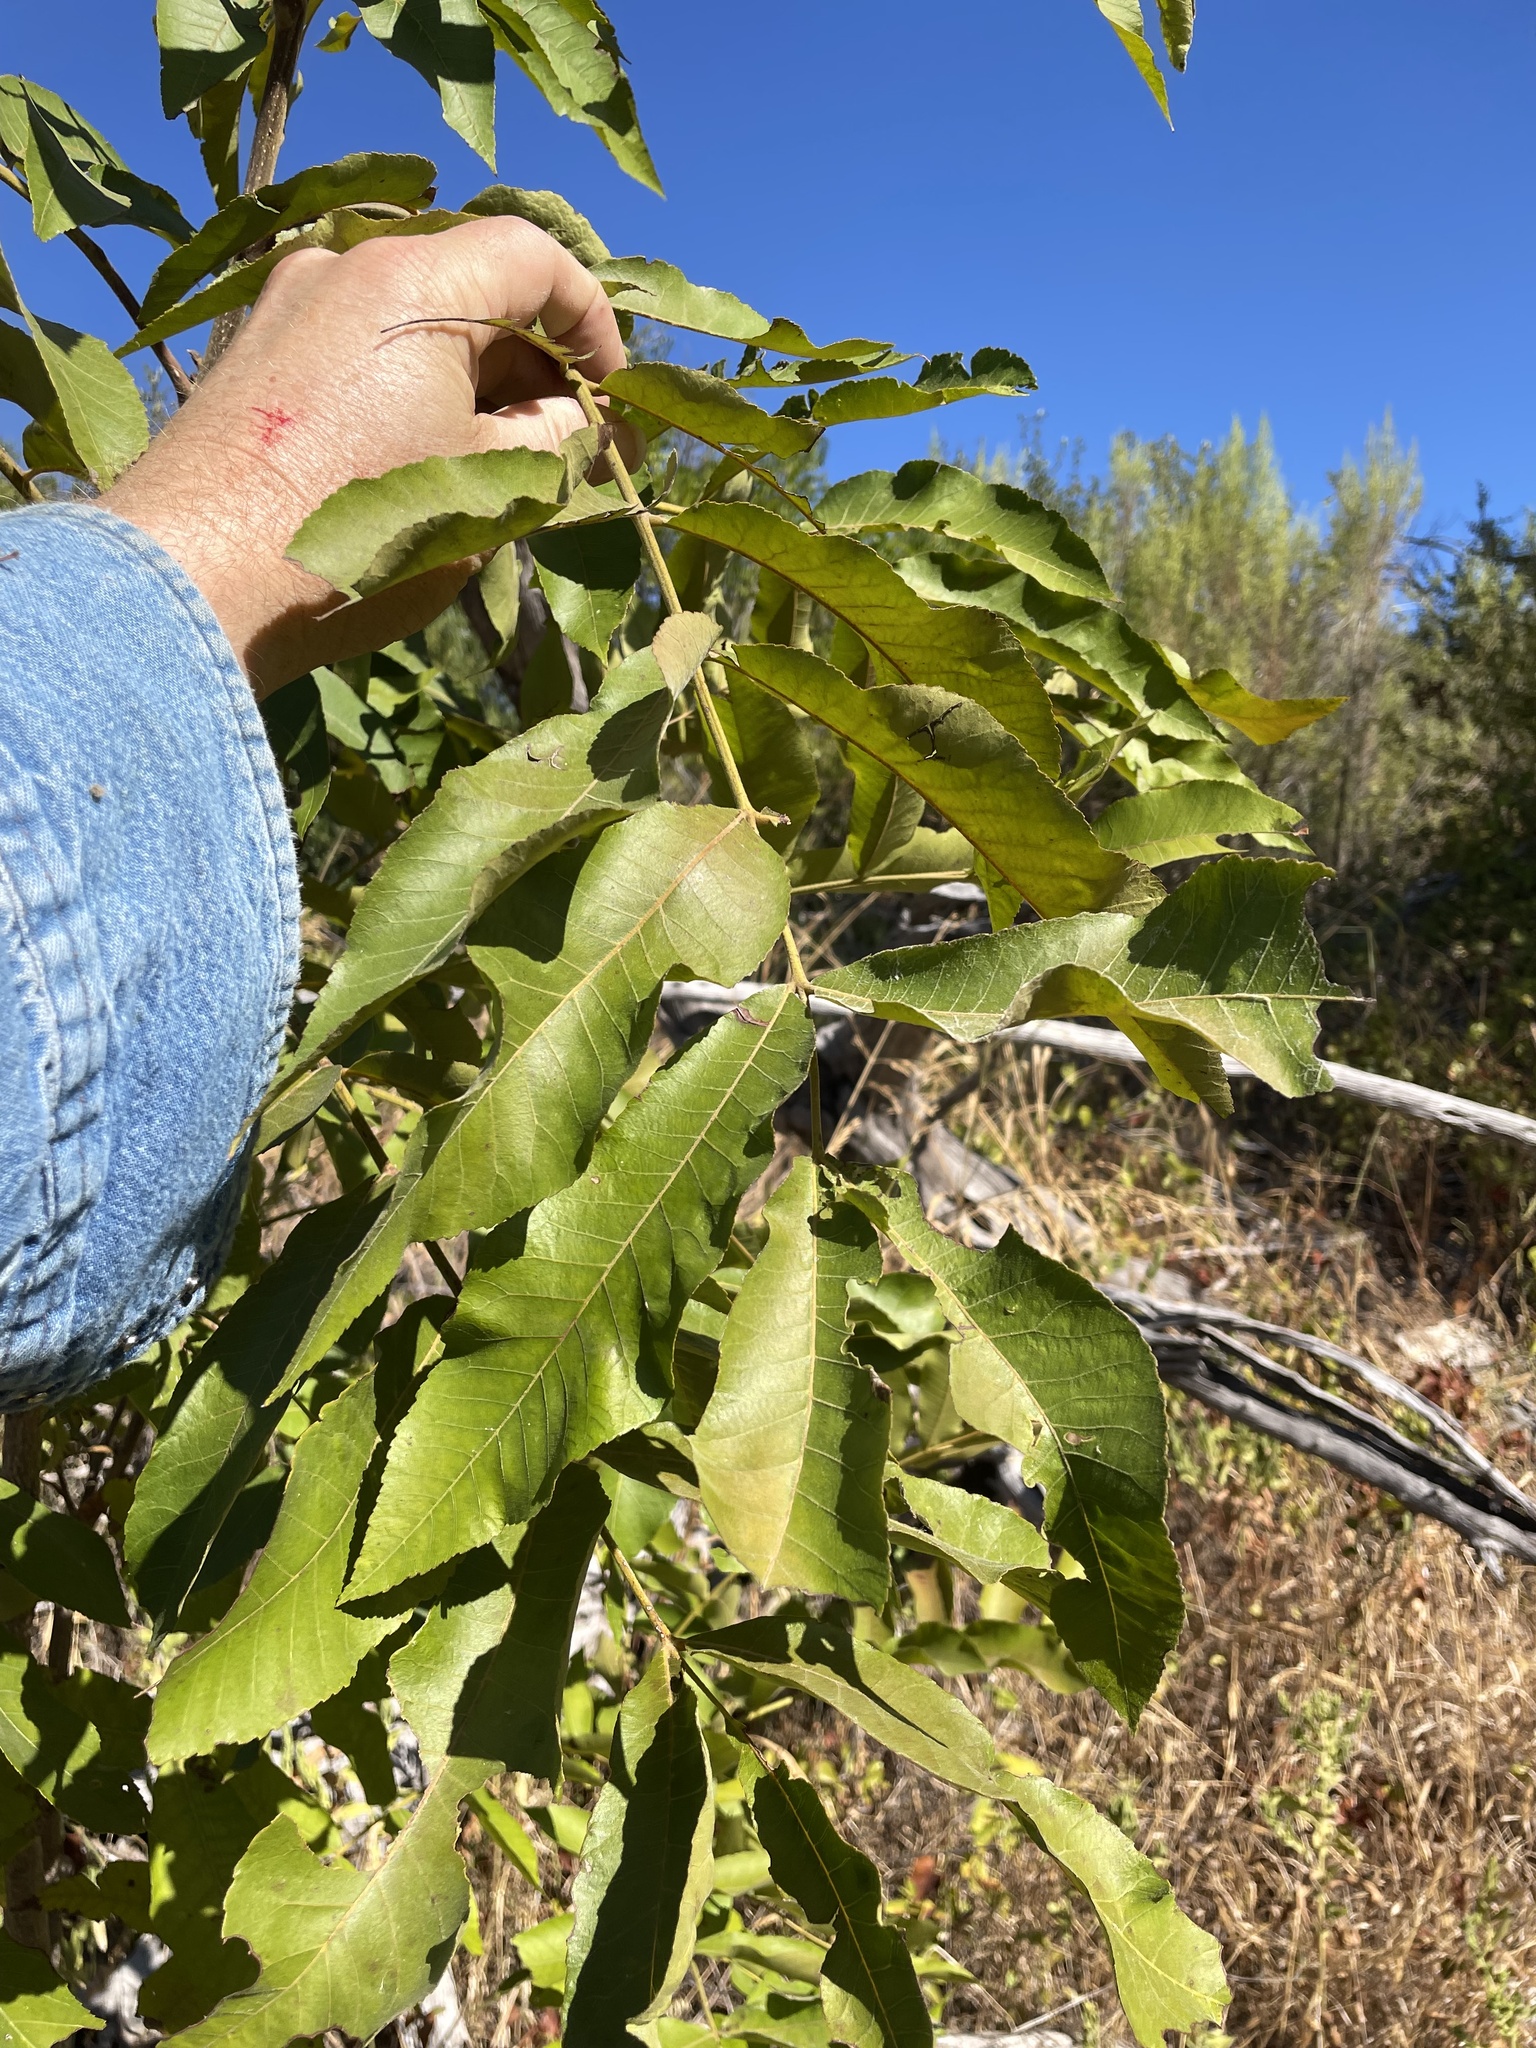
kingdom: Plantae
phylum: Tracheophyta
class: Magnoliopsida
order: Fagales
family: Juglandaceae
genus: Carya
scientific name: Carya illinoinensis
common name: Pecan
